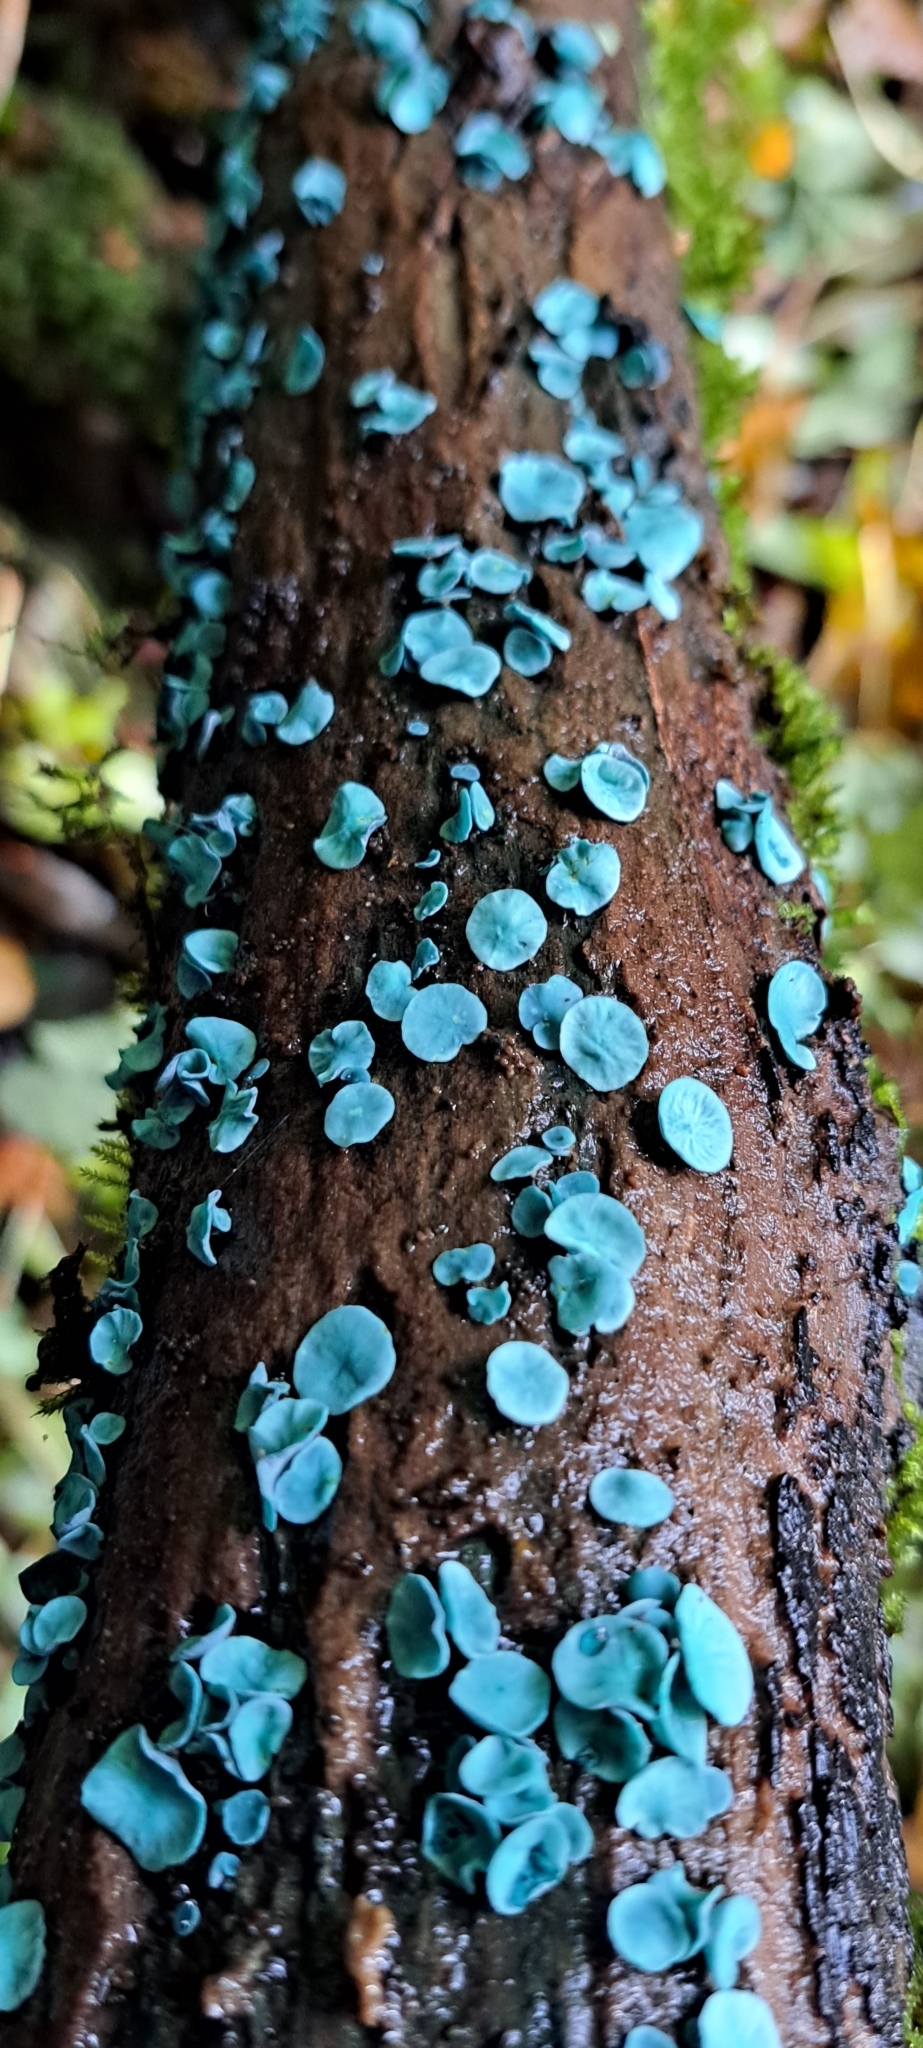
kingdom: Fungi
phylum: Ascomycota
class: Leotiomycetes
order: Helotiales
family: Chlorociboriaceae
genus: Chlorociboria
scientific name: Chlorociboria aeruginascens
